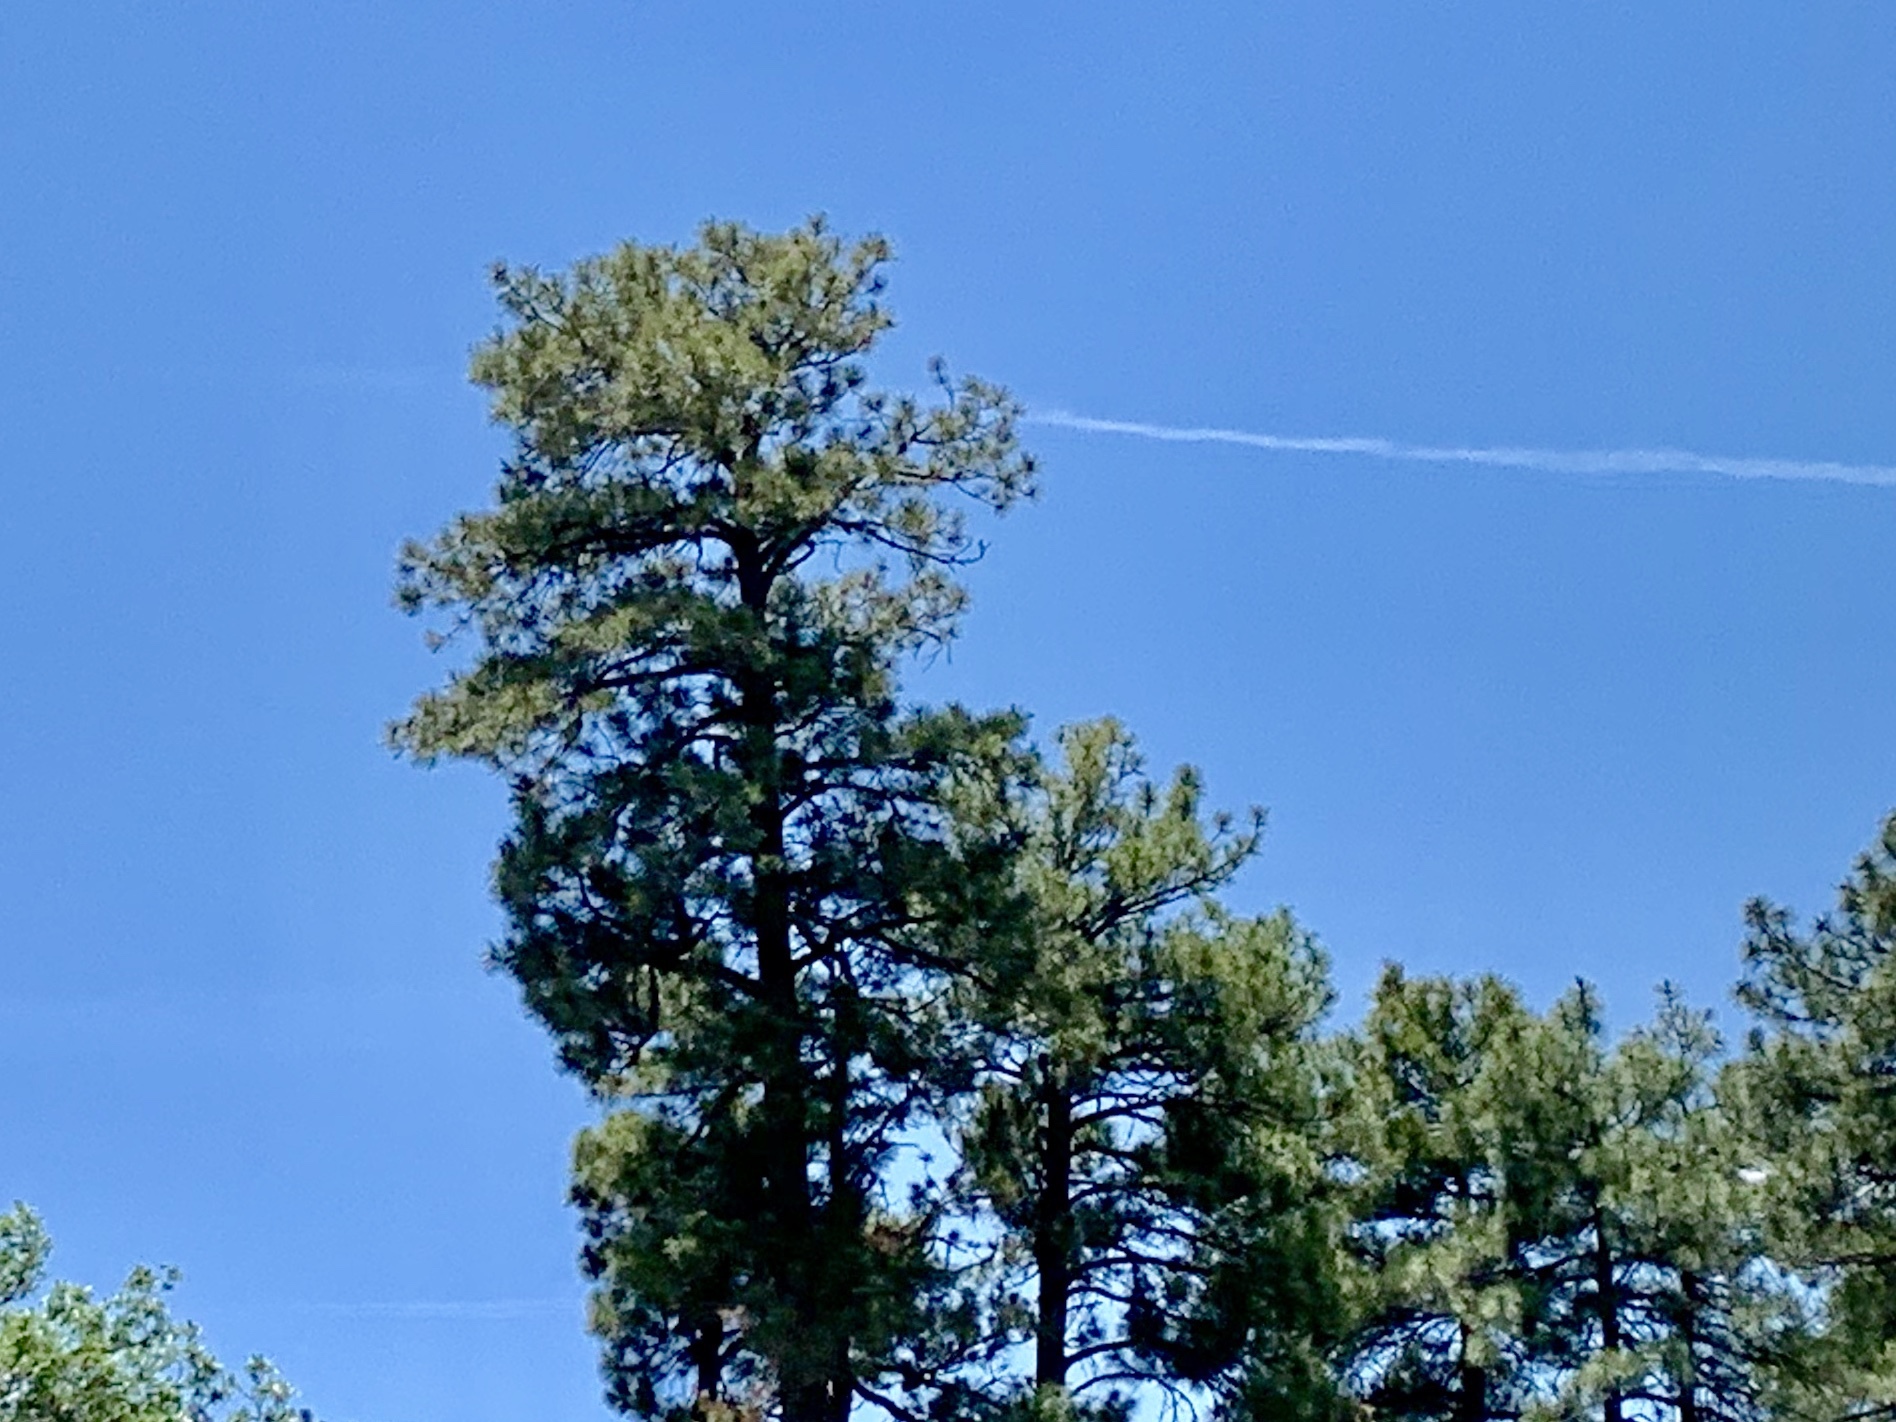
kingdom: Plantae
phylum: Tracheophyta
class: Pinopsida
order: Pinales
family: Pinaceae
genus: Pinus
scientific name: Pinus ponderosa
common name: Western yellow-pine
